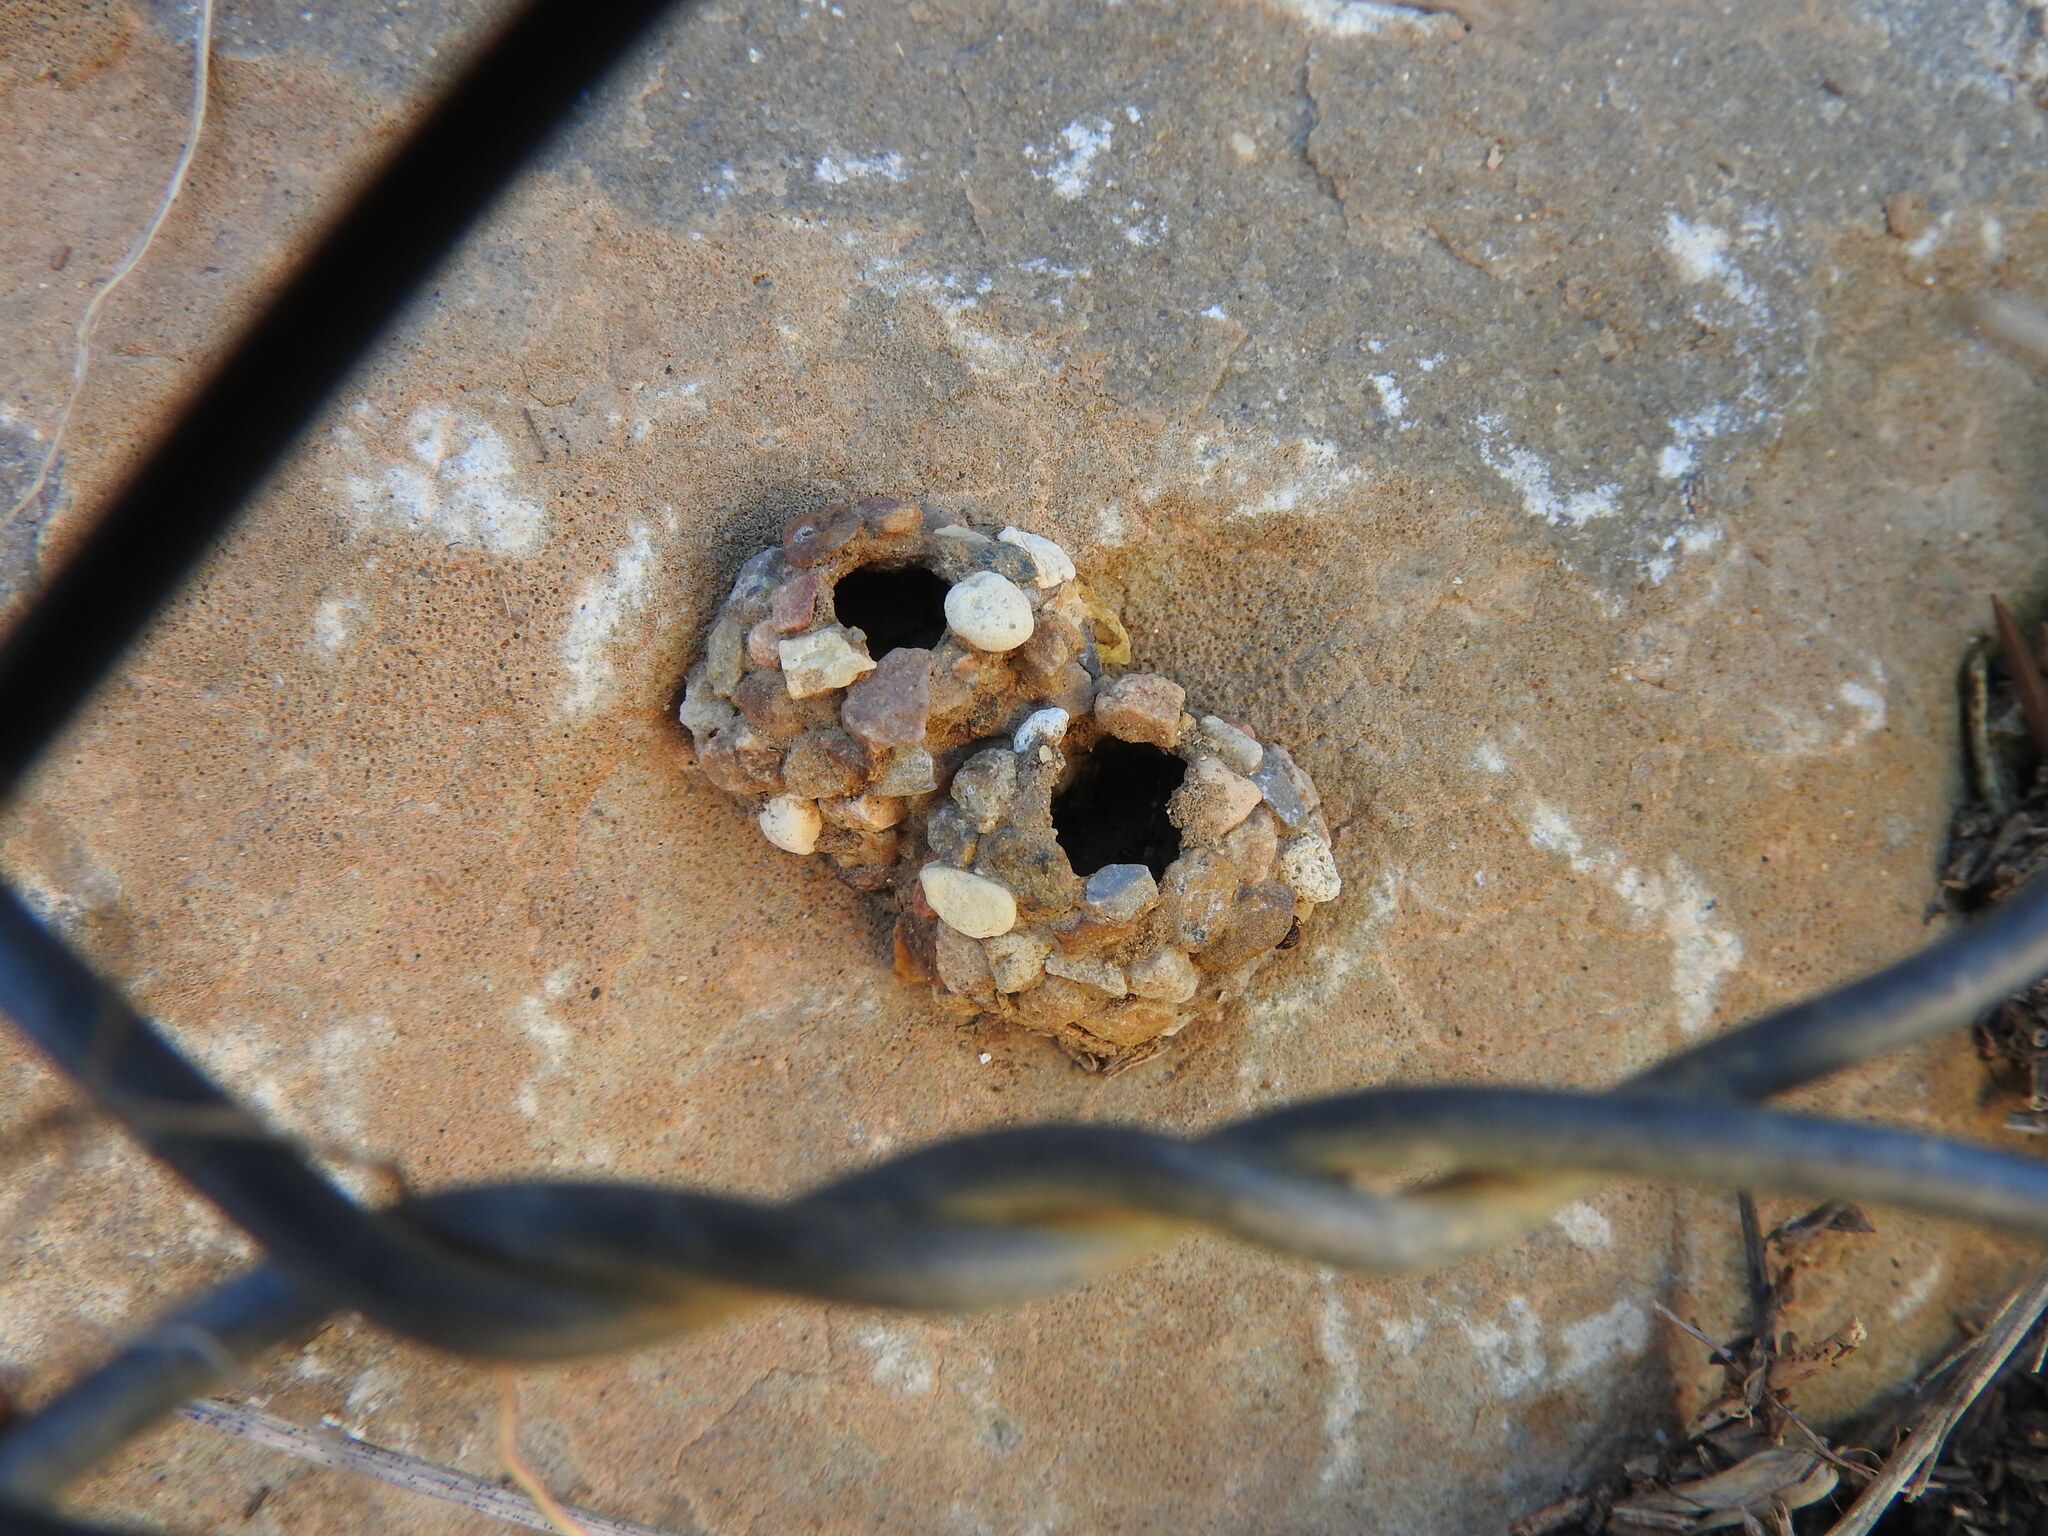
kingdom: Animalia
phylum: Arthropoda
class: Insecta
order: Hymenoptera
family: Eumenidae
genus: Katamenes
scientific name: Katamenes
